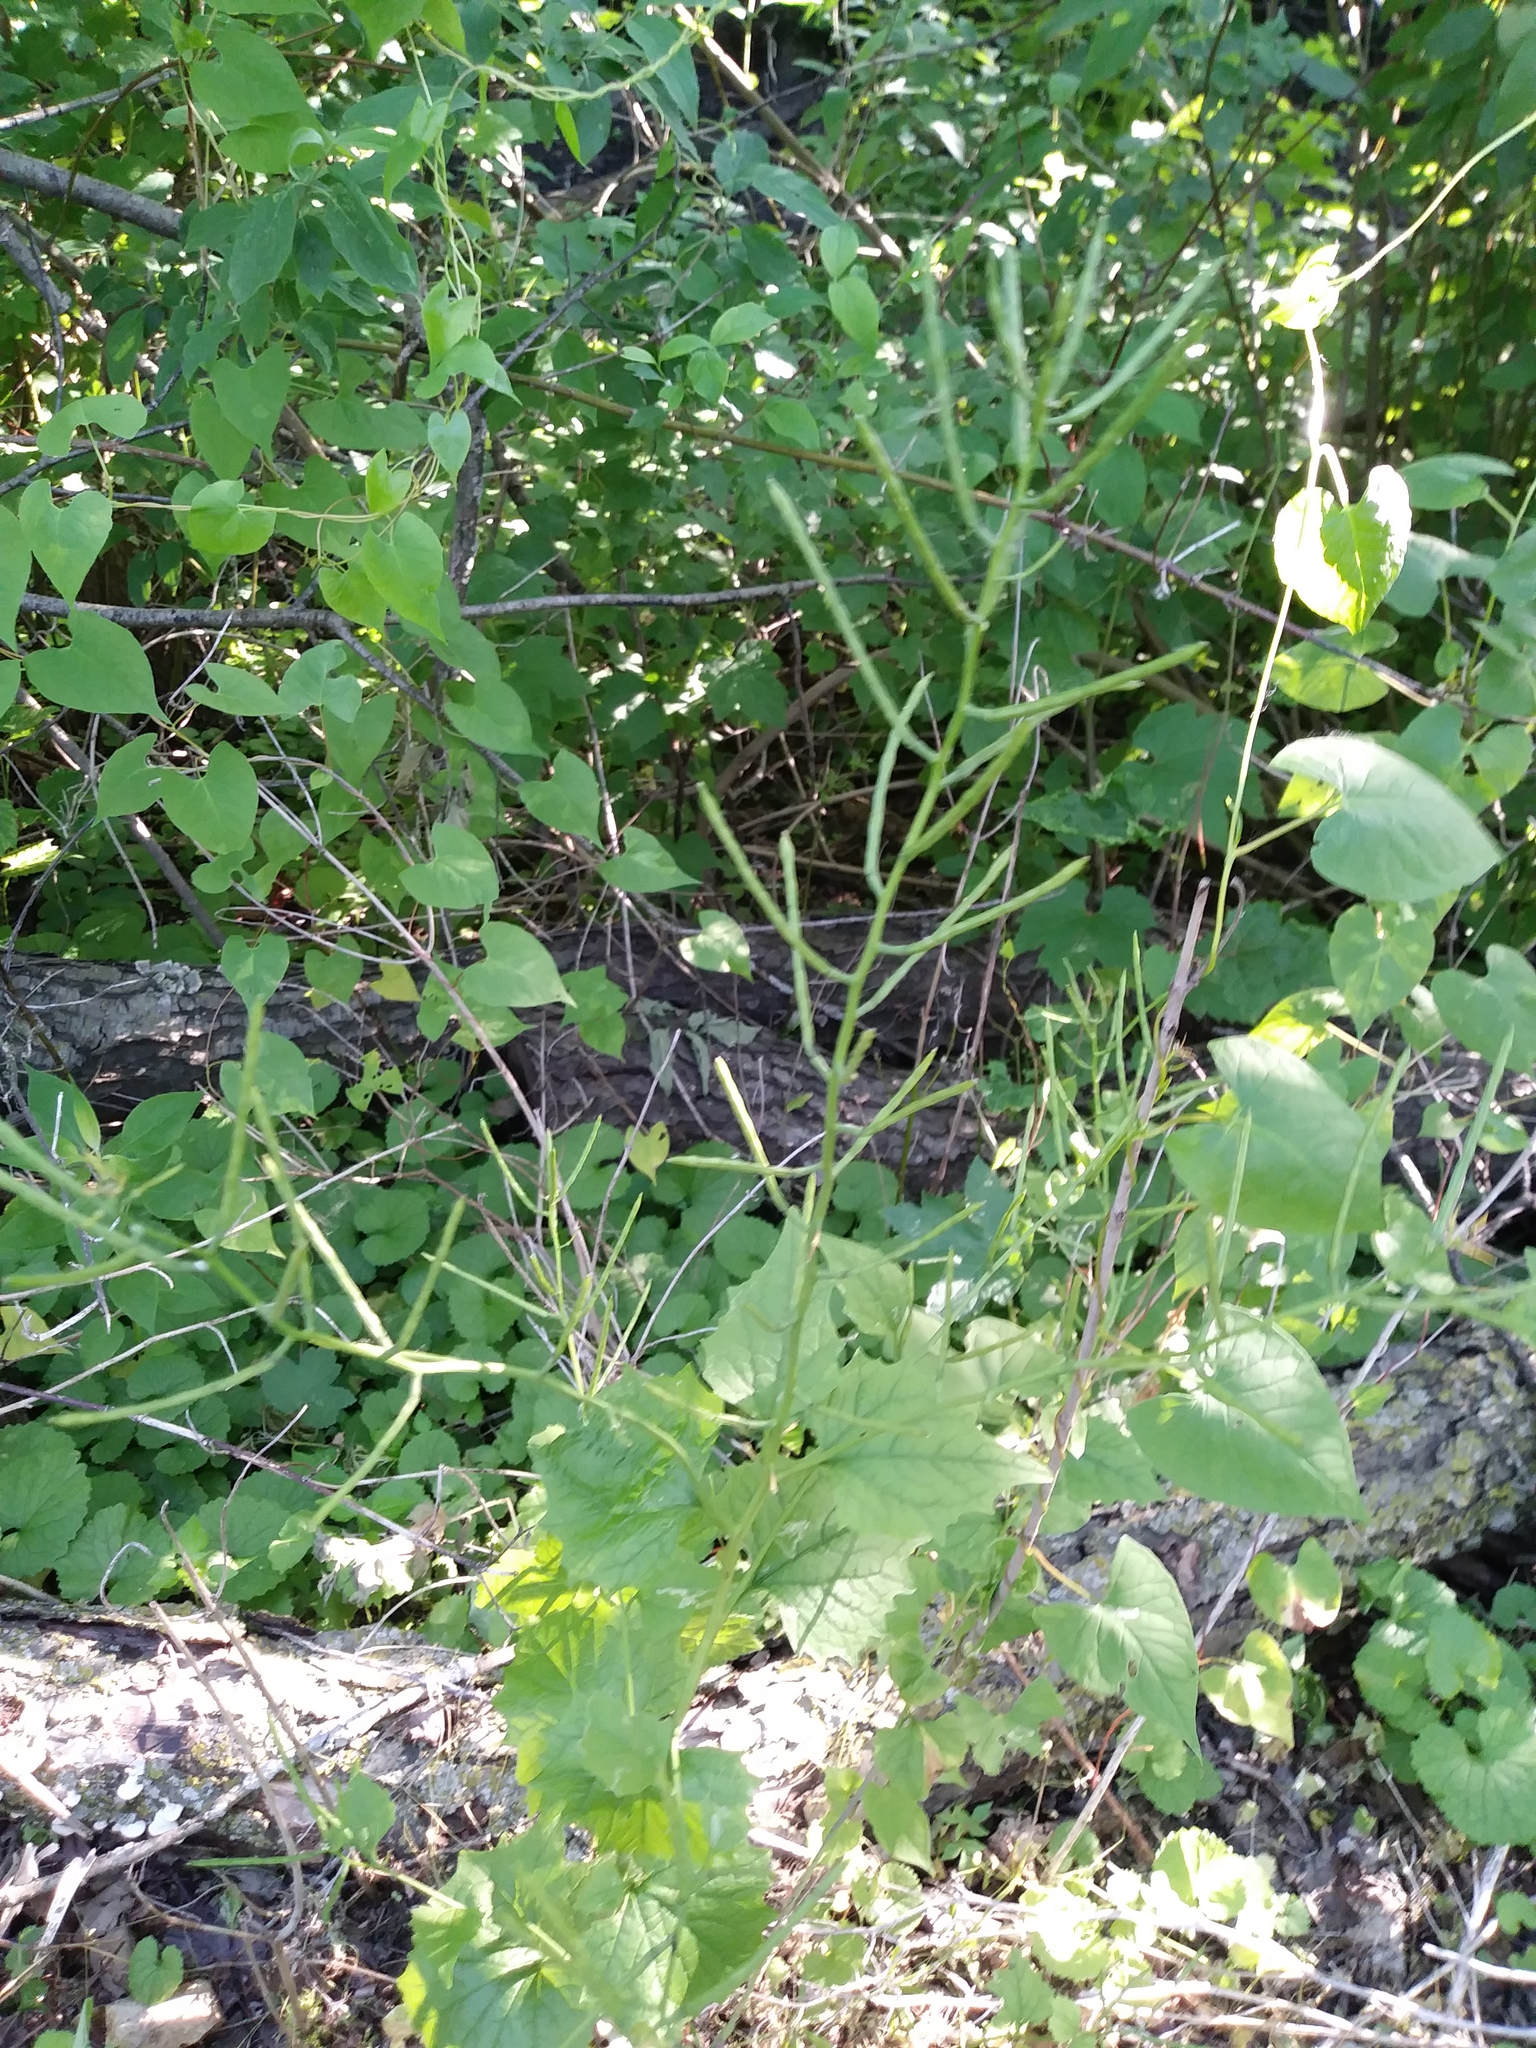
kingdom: Plantae
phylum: Tracheophyta
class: Magnoliopsida
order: Brassicales
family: Brassicaceae
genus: Alliaria
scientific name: Alliaria petiolata
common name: Garlic mustard
